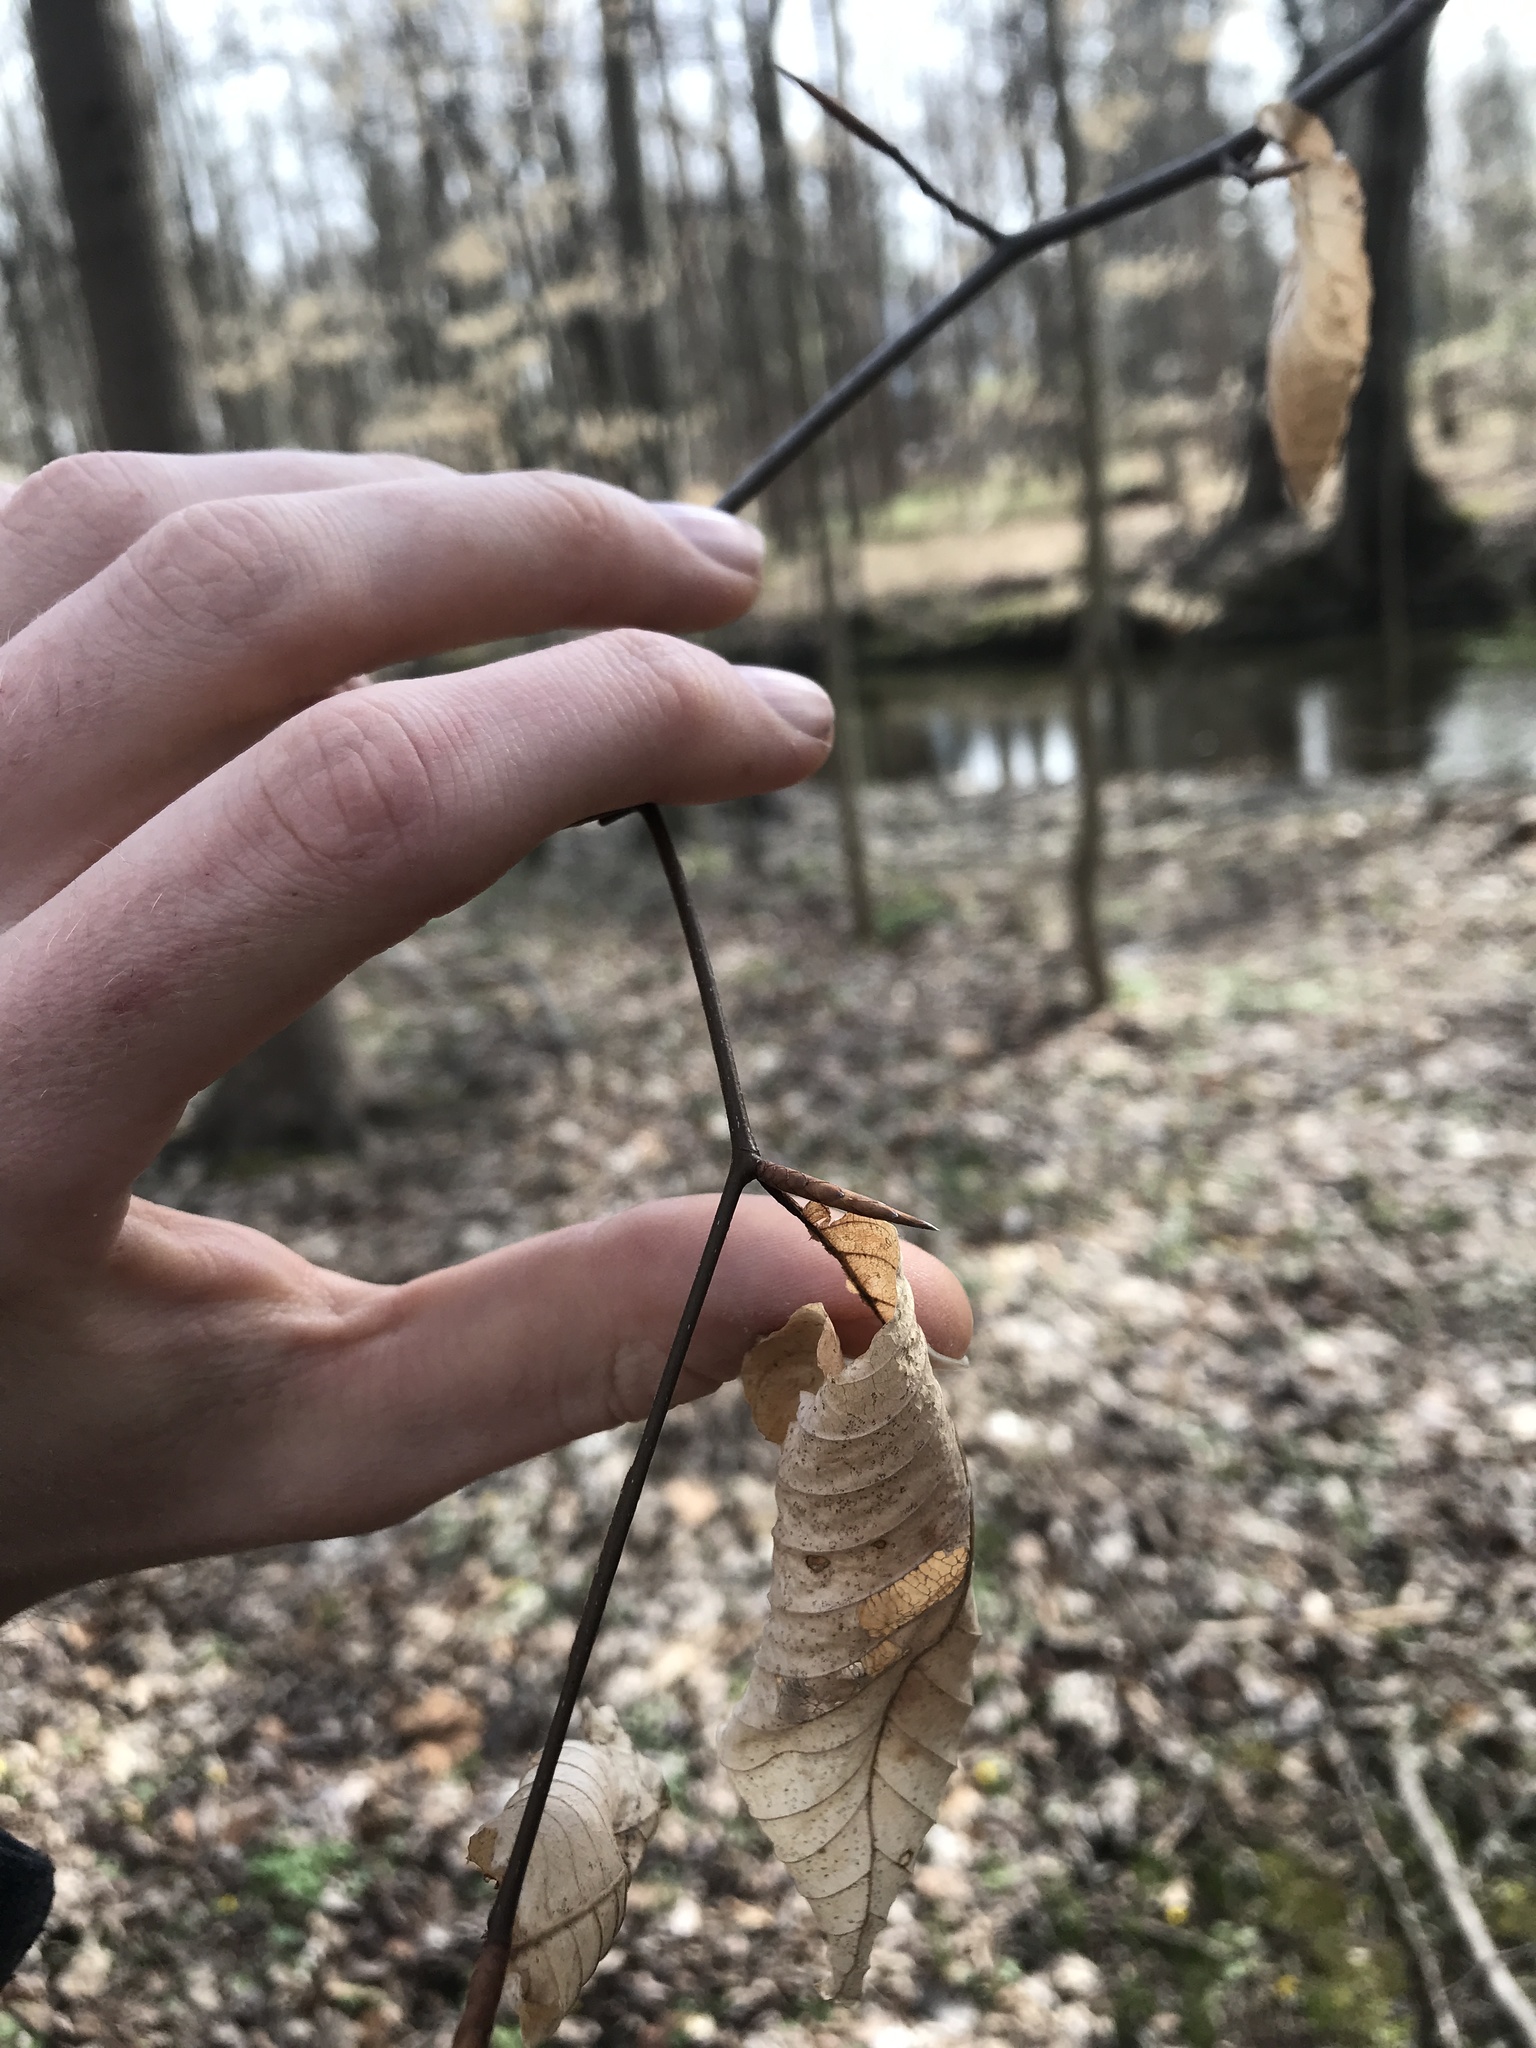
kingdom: Plantae
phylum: Tracheophyta
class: Magnoliopsida
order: Fagales
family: Fagaceae
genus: Fagus
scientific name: Fagus grandifolia
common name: American beech
